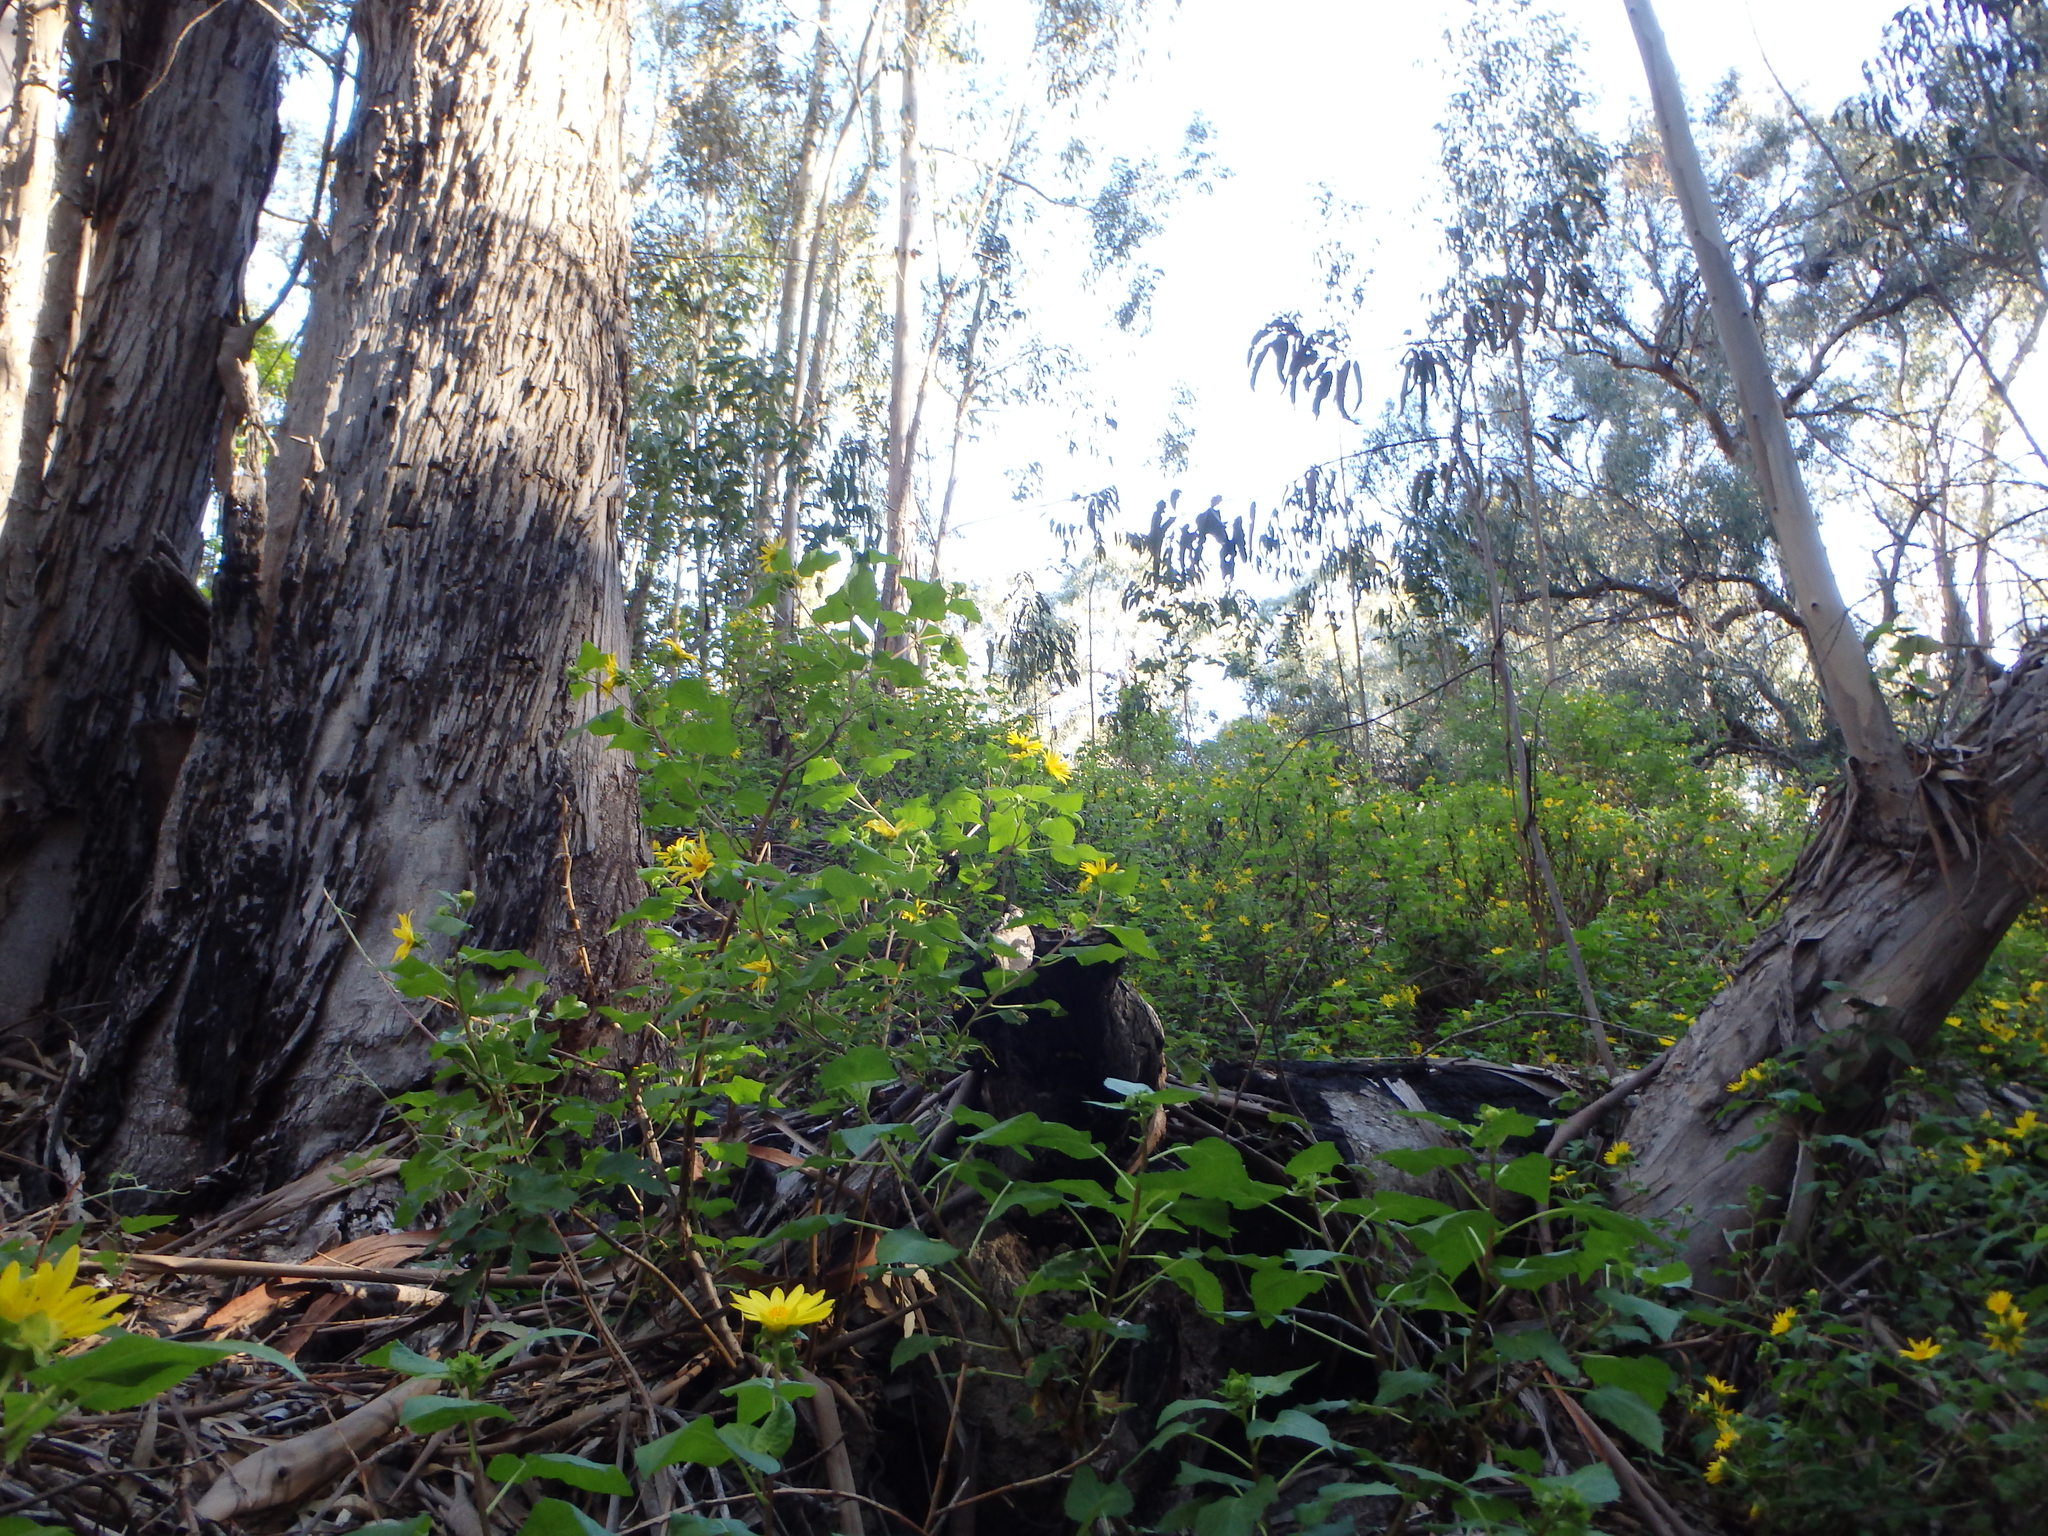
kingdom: Plantae
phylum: Tracheophyta
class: Magnoliopsida
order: Asterales
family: Asteraceae
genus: Venegasia
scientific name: Venegasia carpesioides
